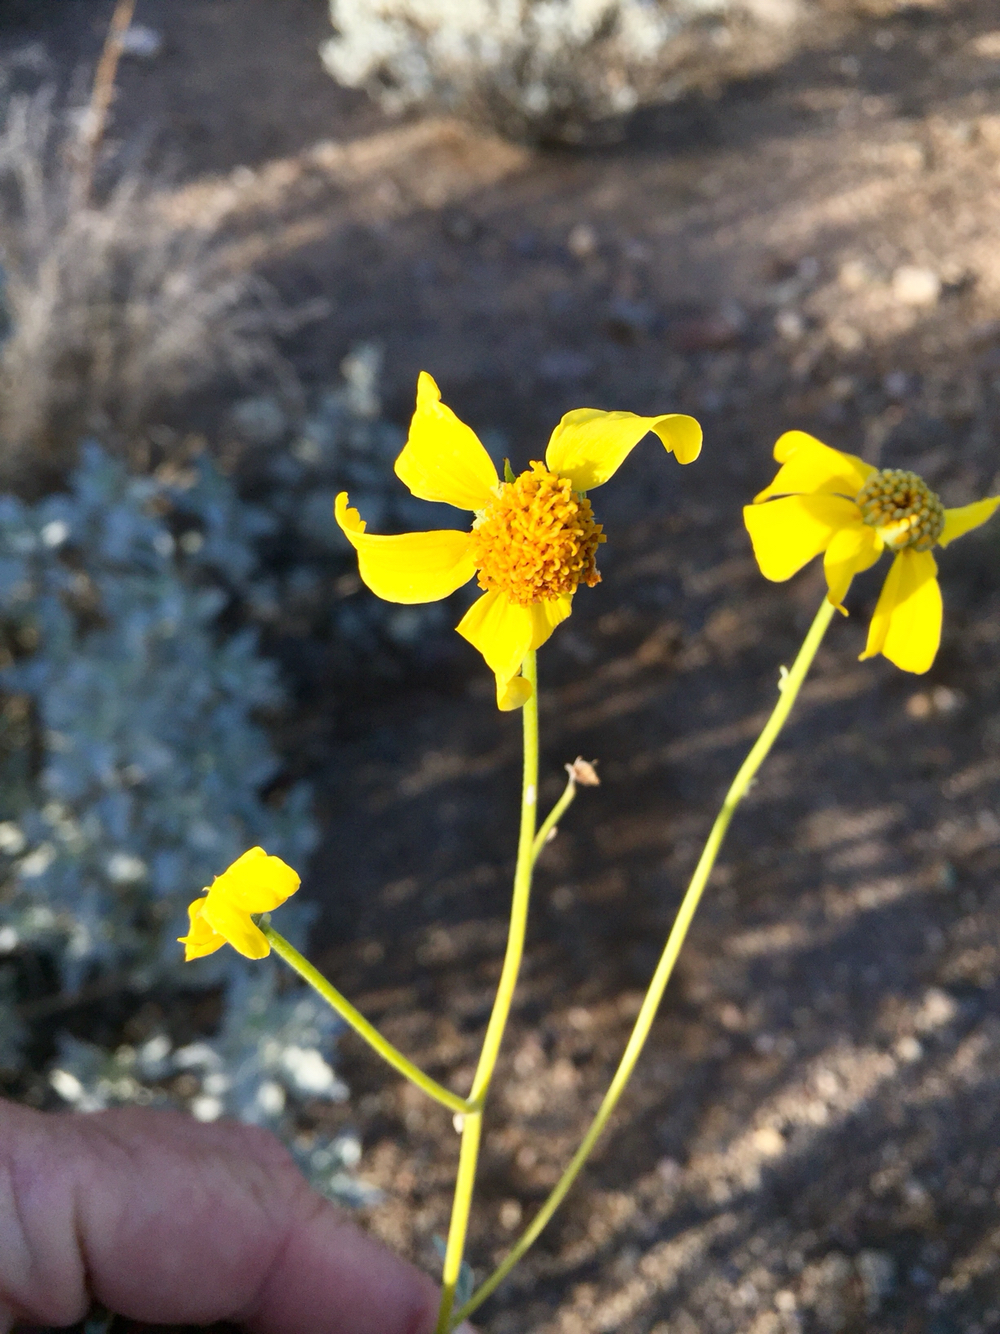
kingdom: Plantae
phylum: Tracheophyta
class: Magnoliopsida
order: Asterales
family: Asteraceae
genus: Encelia
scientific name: Encelia farinosa
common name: Brittlebush
